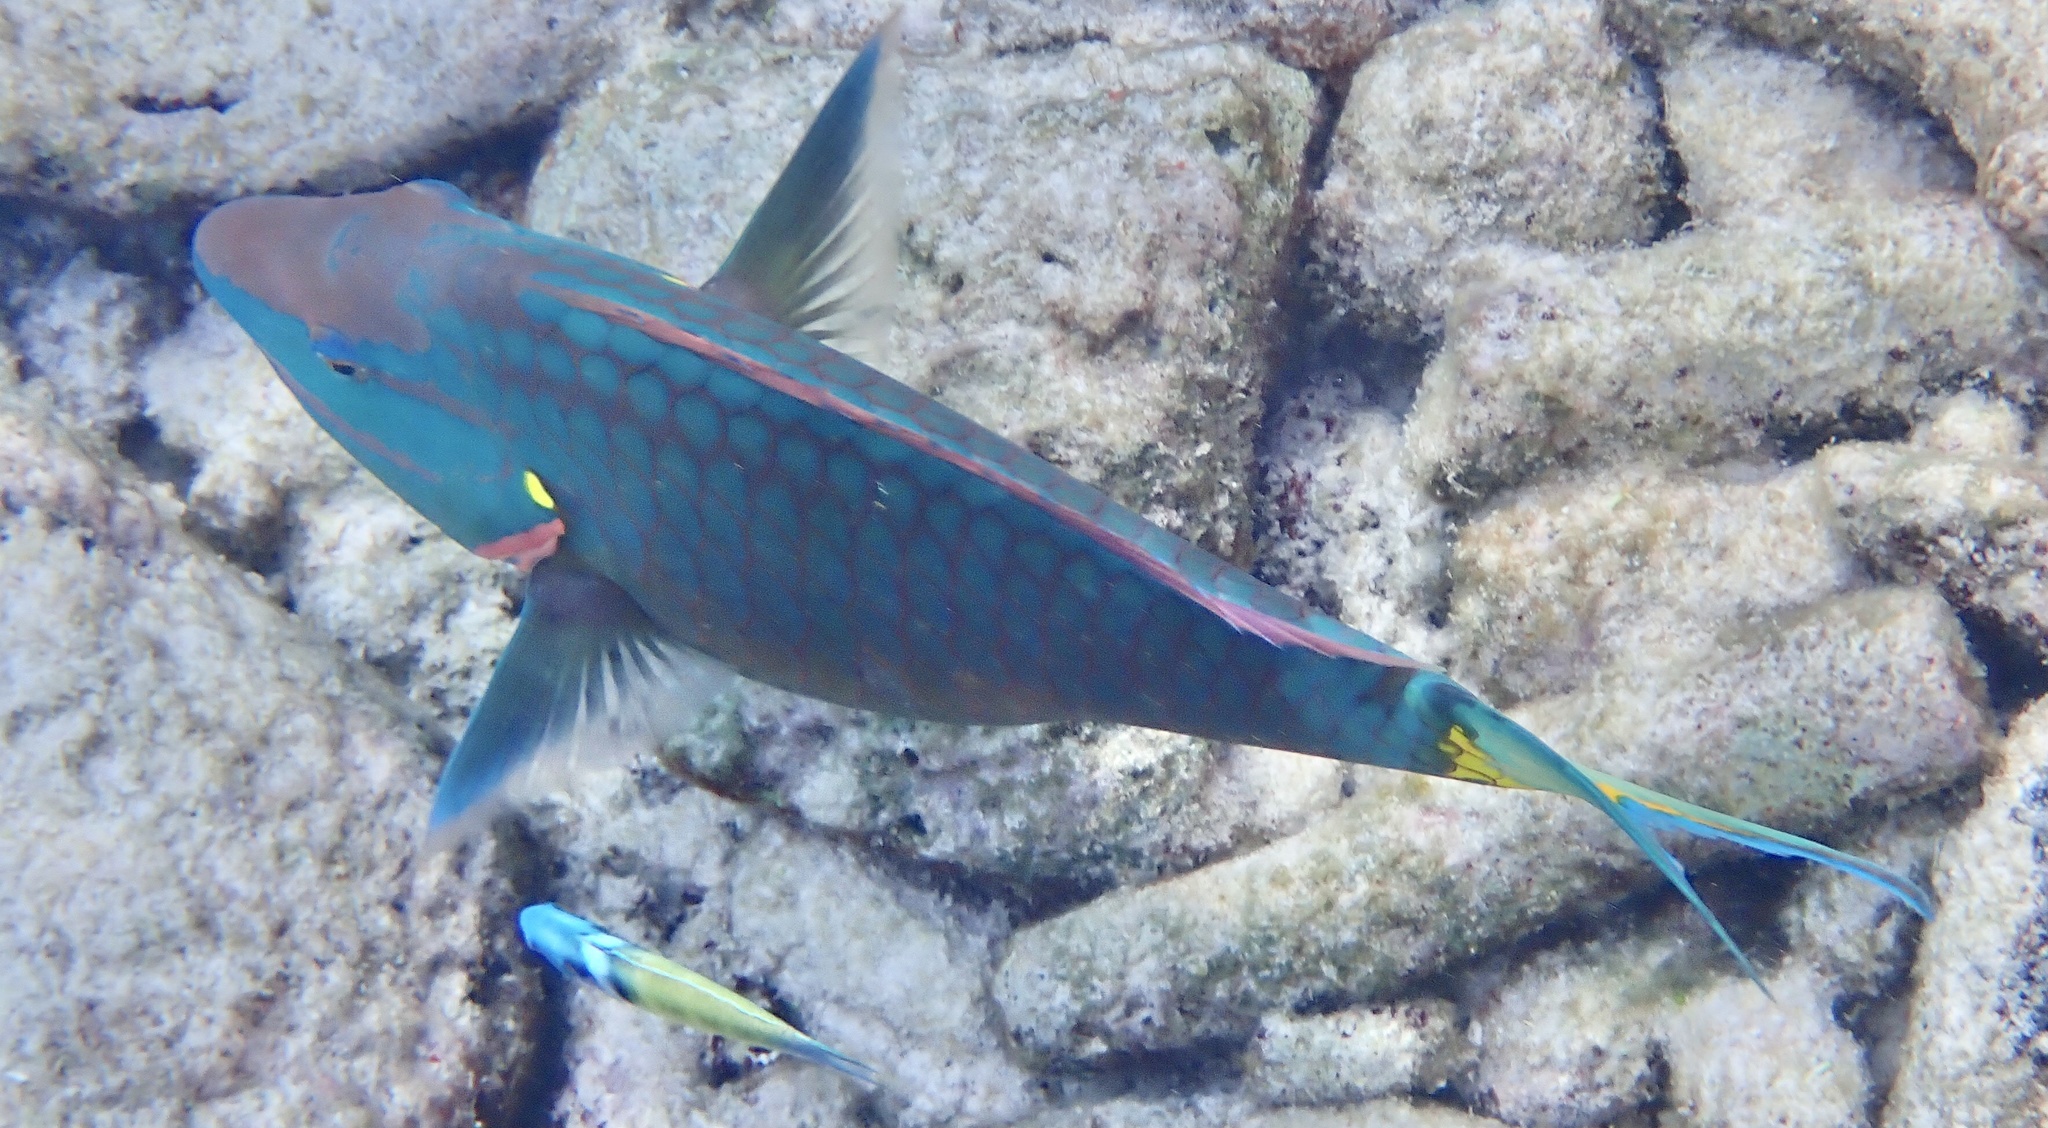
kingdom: Animalia
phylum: Chordata
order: Perciformes
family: Scaridae
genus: Sparisoma
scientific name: Sparisoma viride
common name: Stoplight parrotfish
